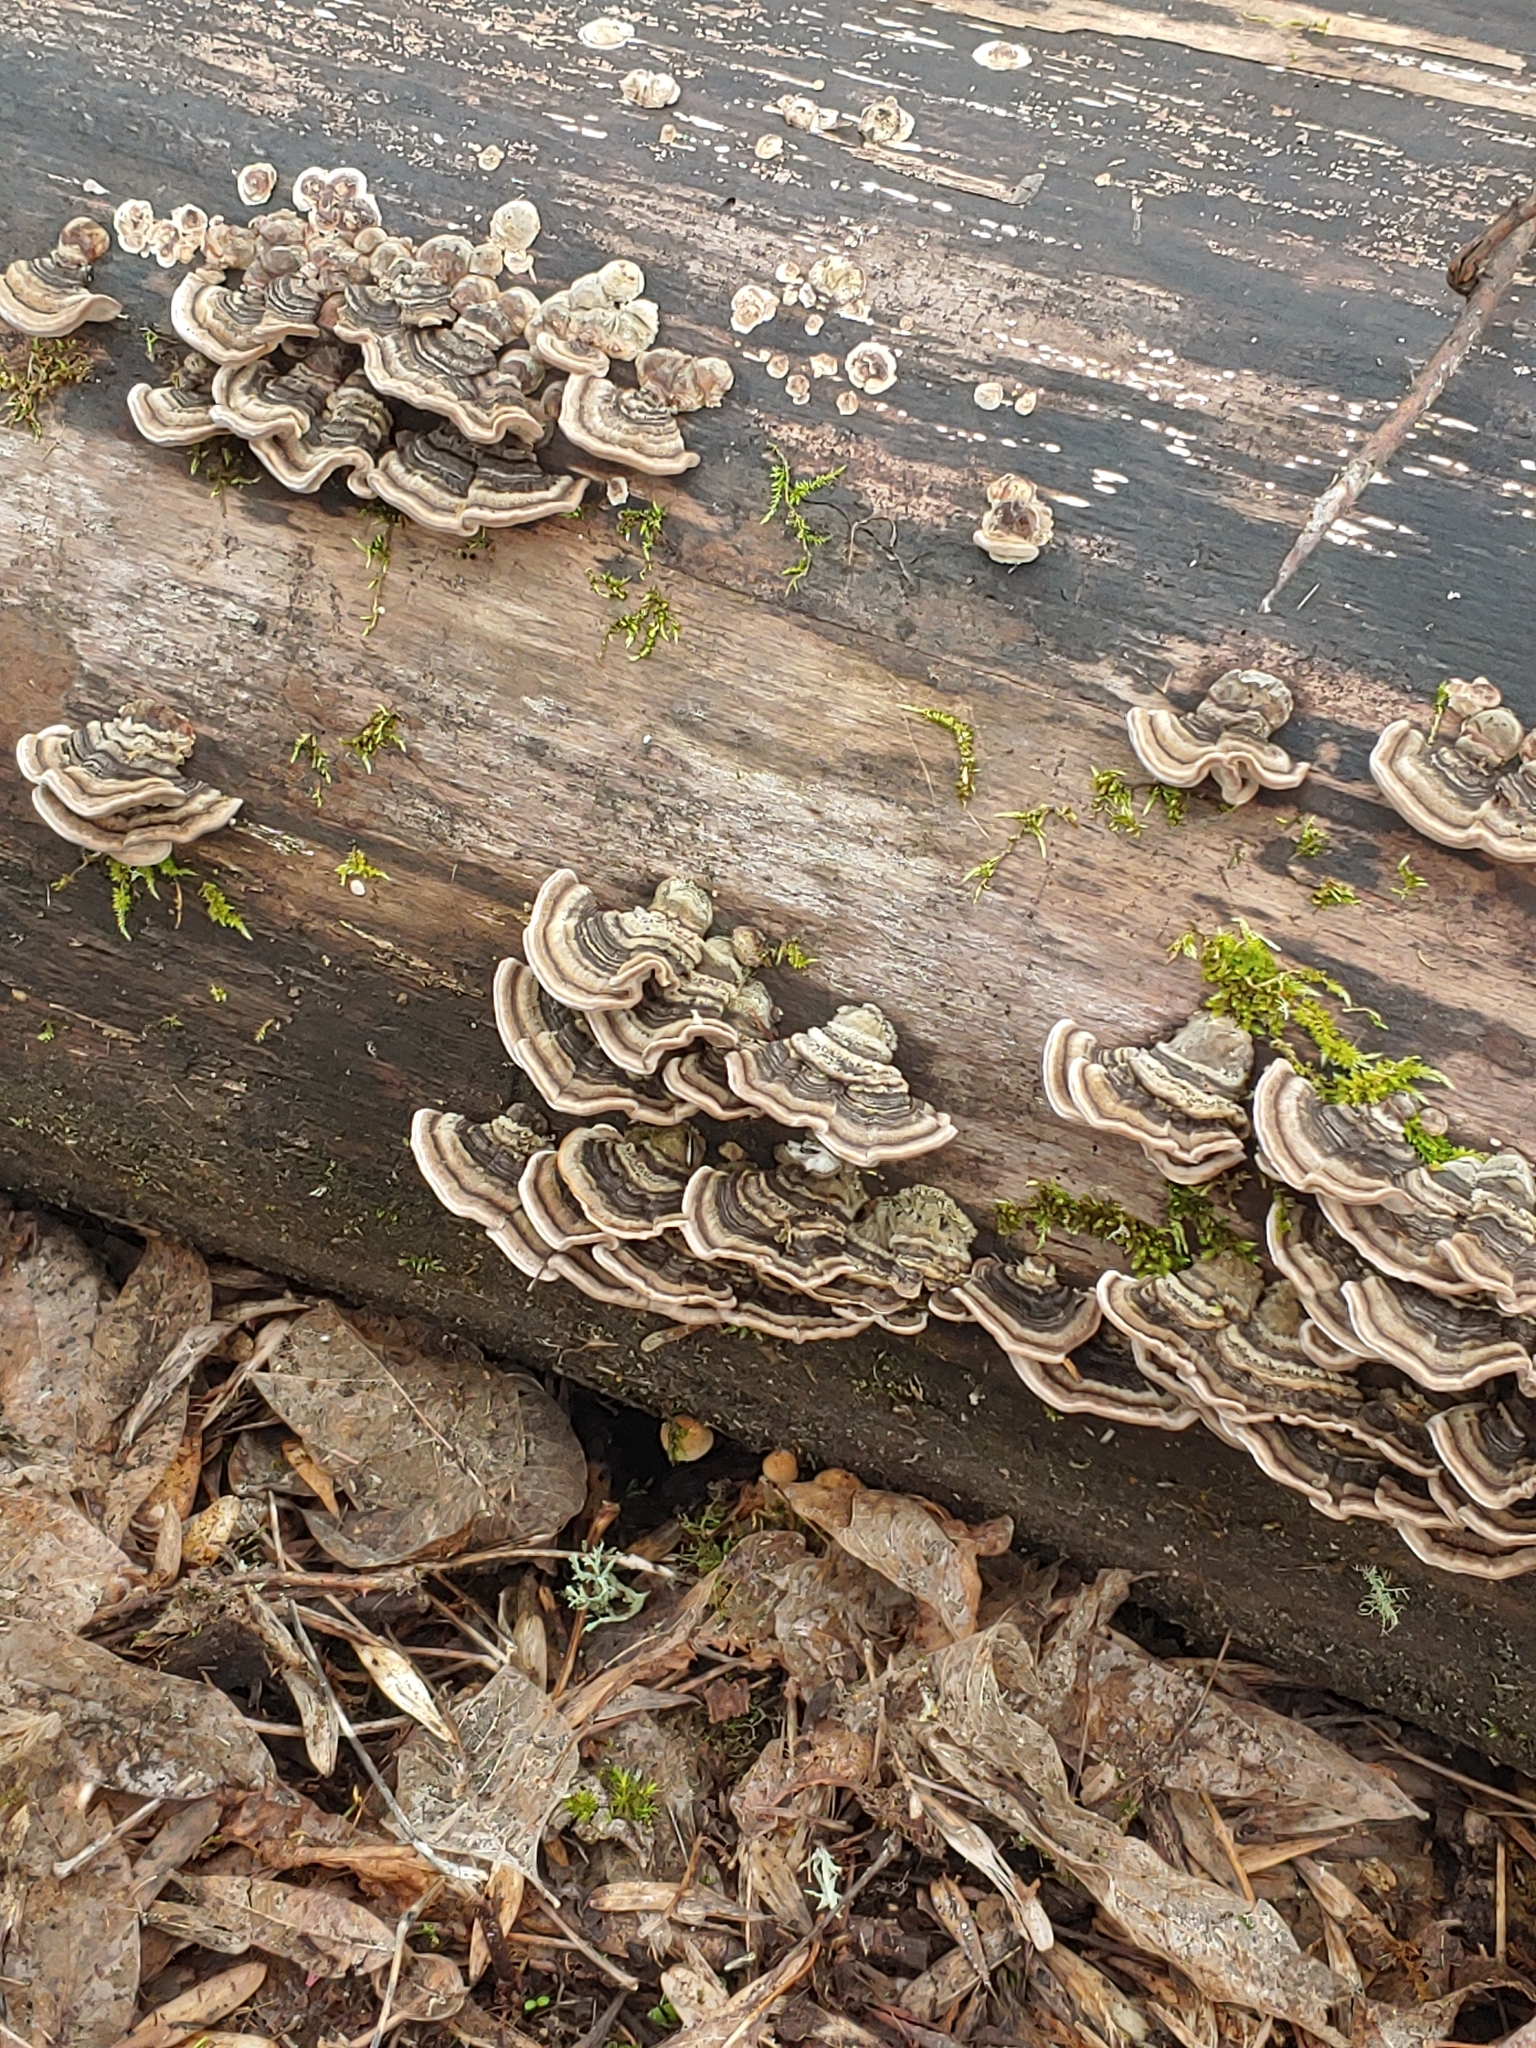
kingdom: Fungi
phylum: Basidiomycota
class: Agaricomycetes
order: Polyporales
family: Polyporaceae
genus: Trametes
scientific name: Trametes versicolor
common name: Turkeytail
